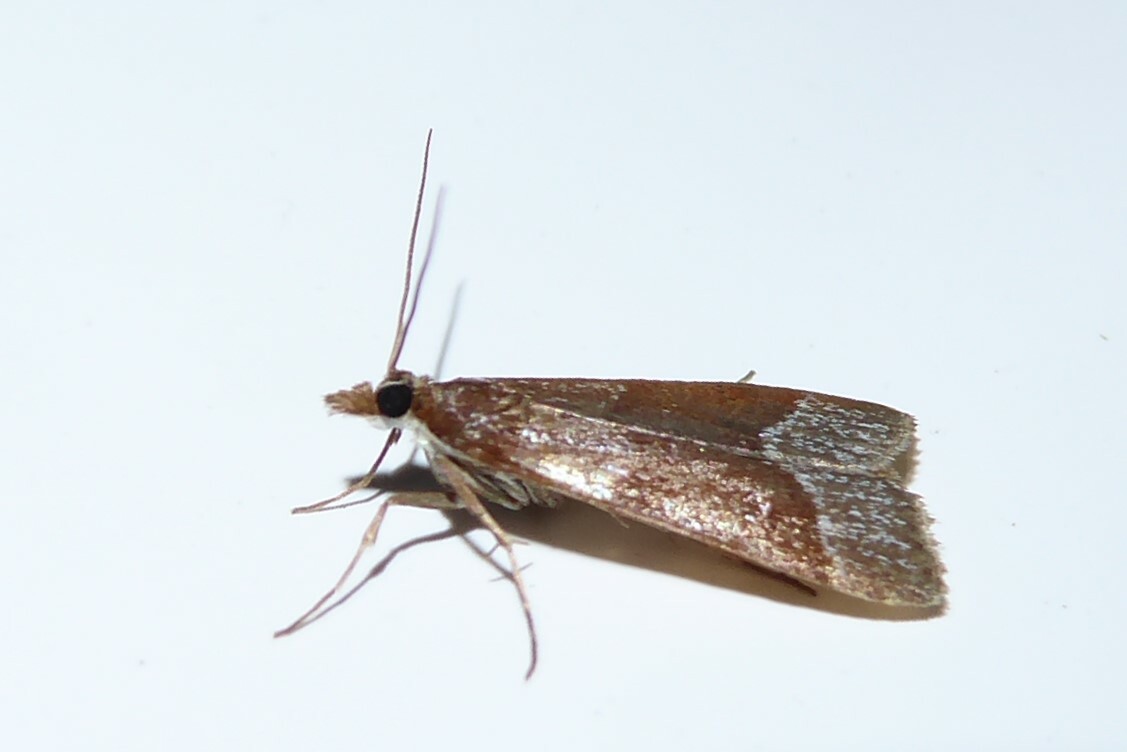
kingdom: Animalia
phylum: Arthropoda
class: Insecta
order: Lepidoptera
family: Crambidae
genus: Eudonia
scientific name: Eudonia feredayi
